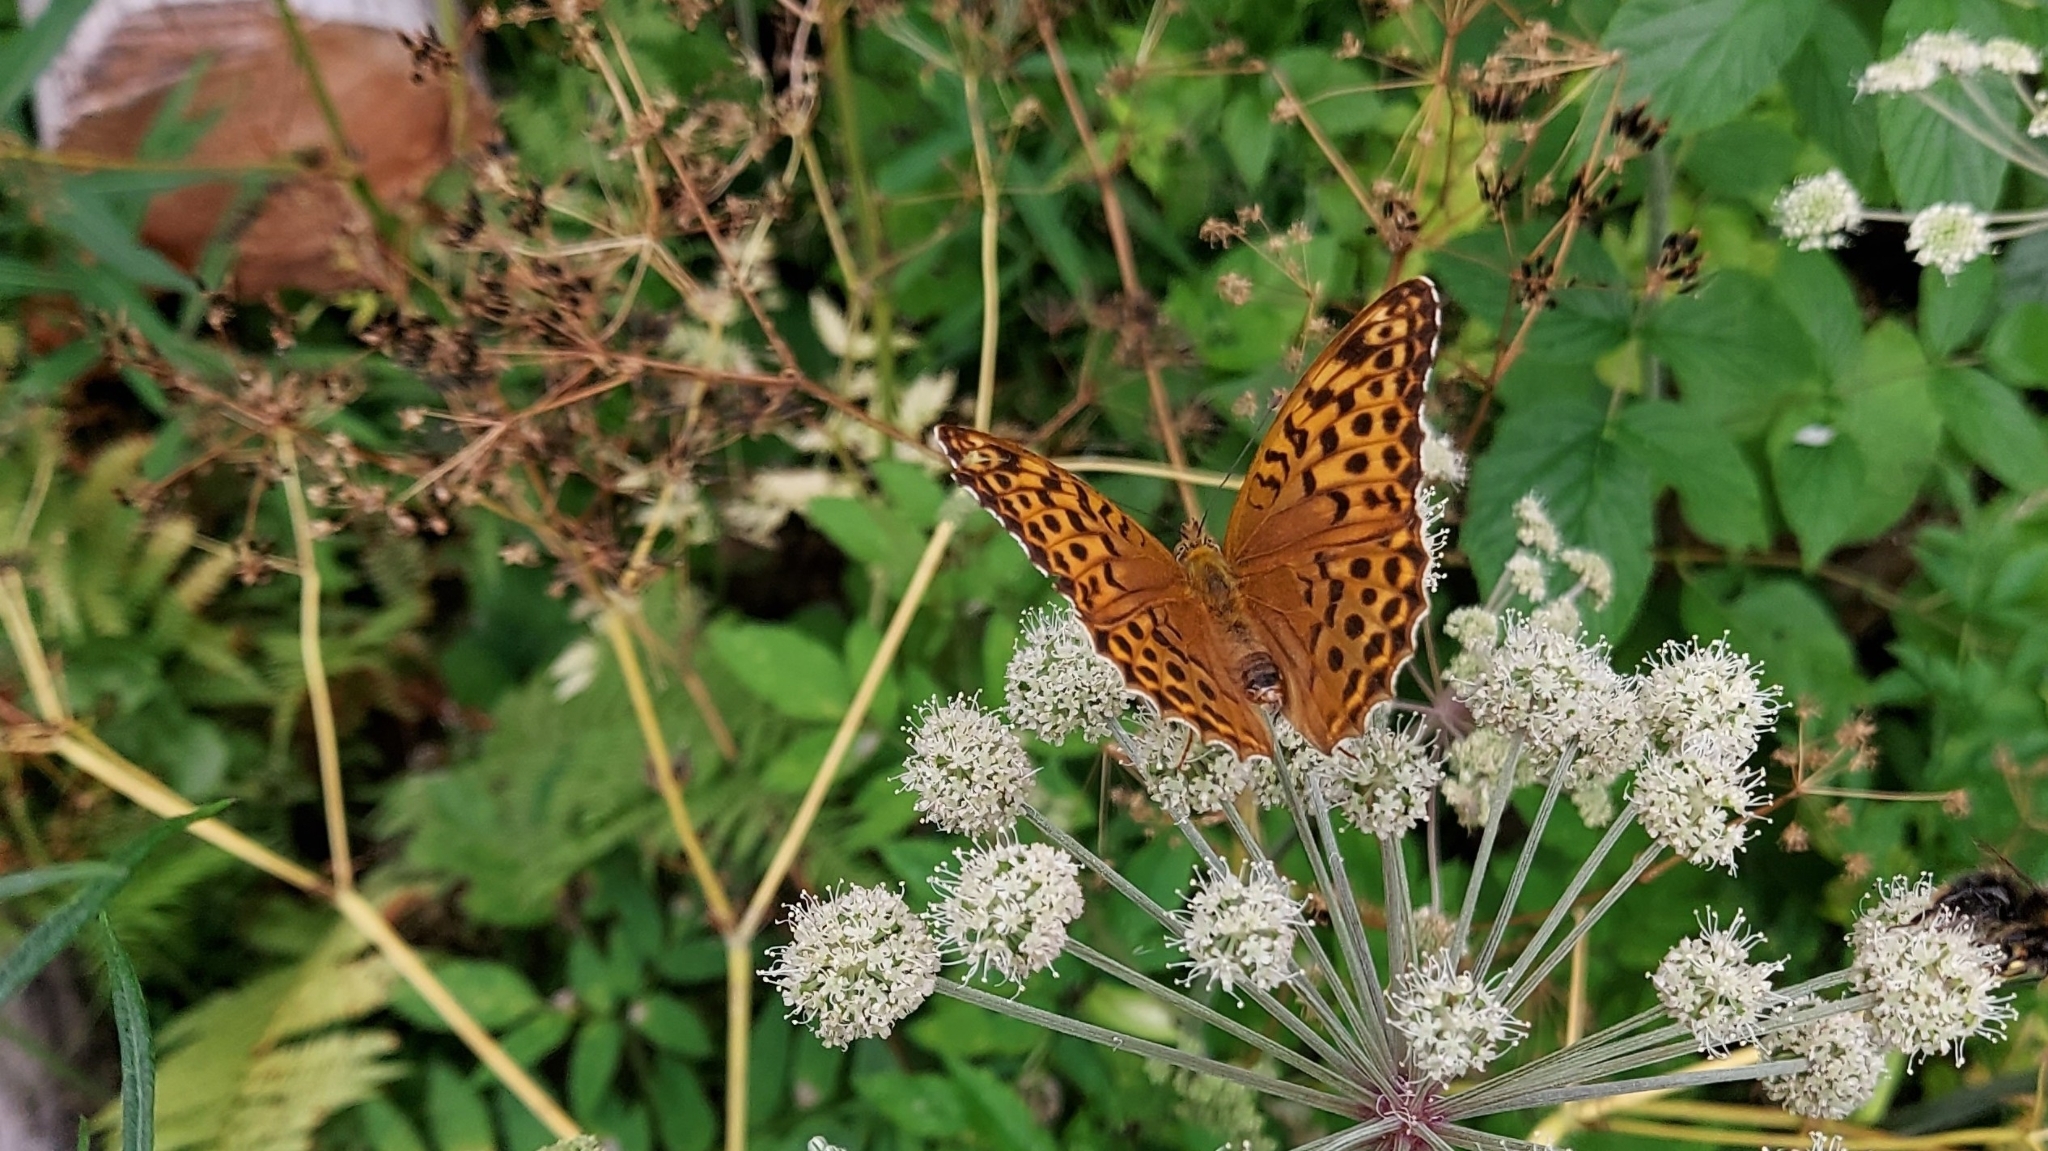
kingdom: Animalia
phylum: Arthropoda
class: Insecta
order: Lepidoptera
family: Nymphalidae
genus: Argynnis
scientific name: Argynnis paphia
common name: Silver-washed fritillary
